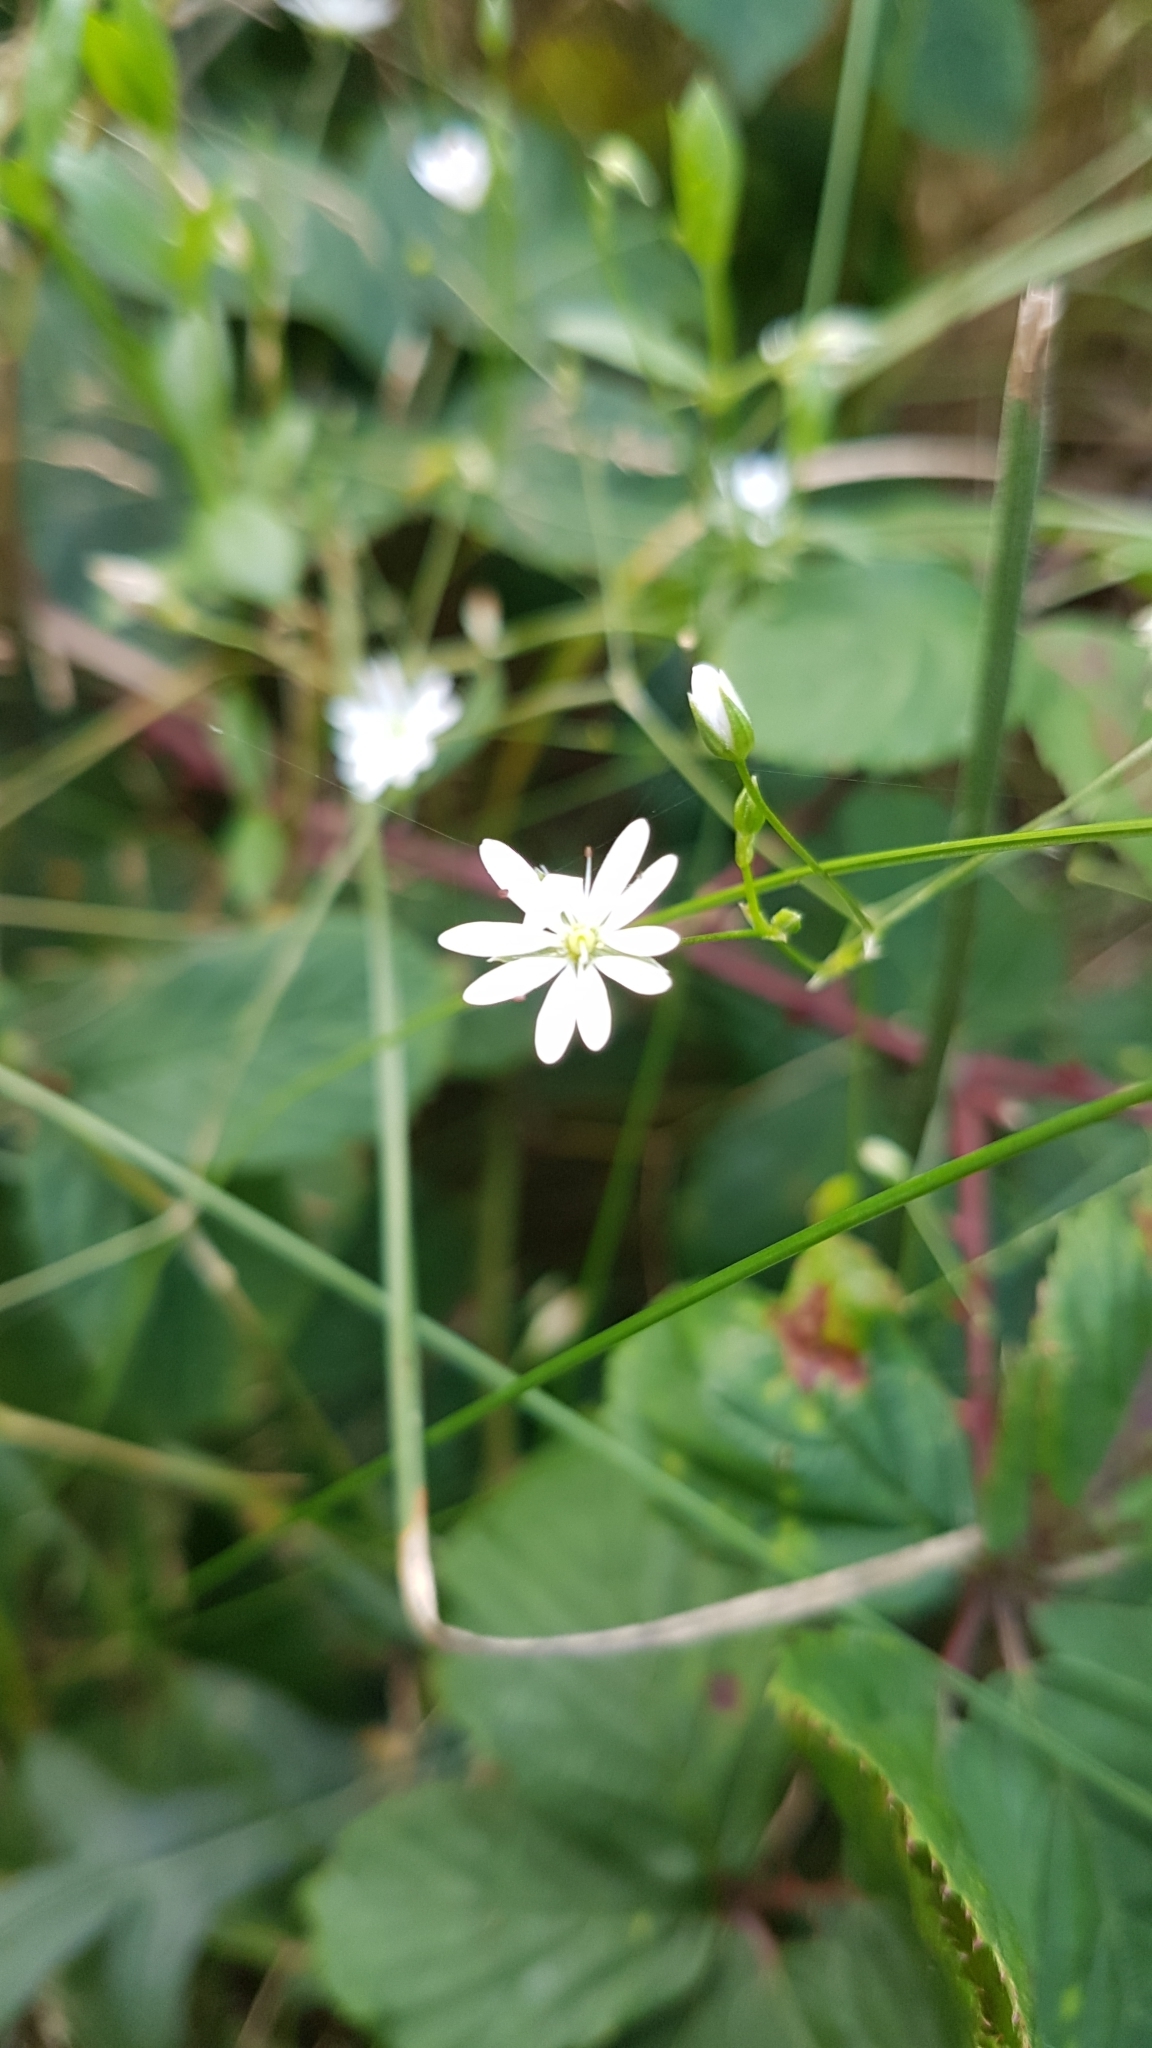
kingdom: Plantae
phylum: Tracheophyta
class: Magnoliopsida
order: Caryophyllales
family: Caryophyllaceae
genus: Stellaria
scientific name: Stellaria graminea
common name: Grass-like starwort
